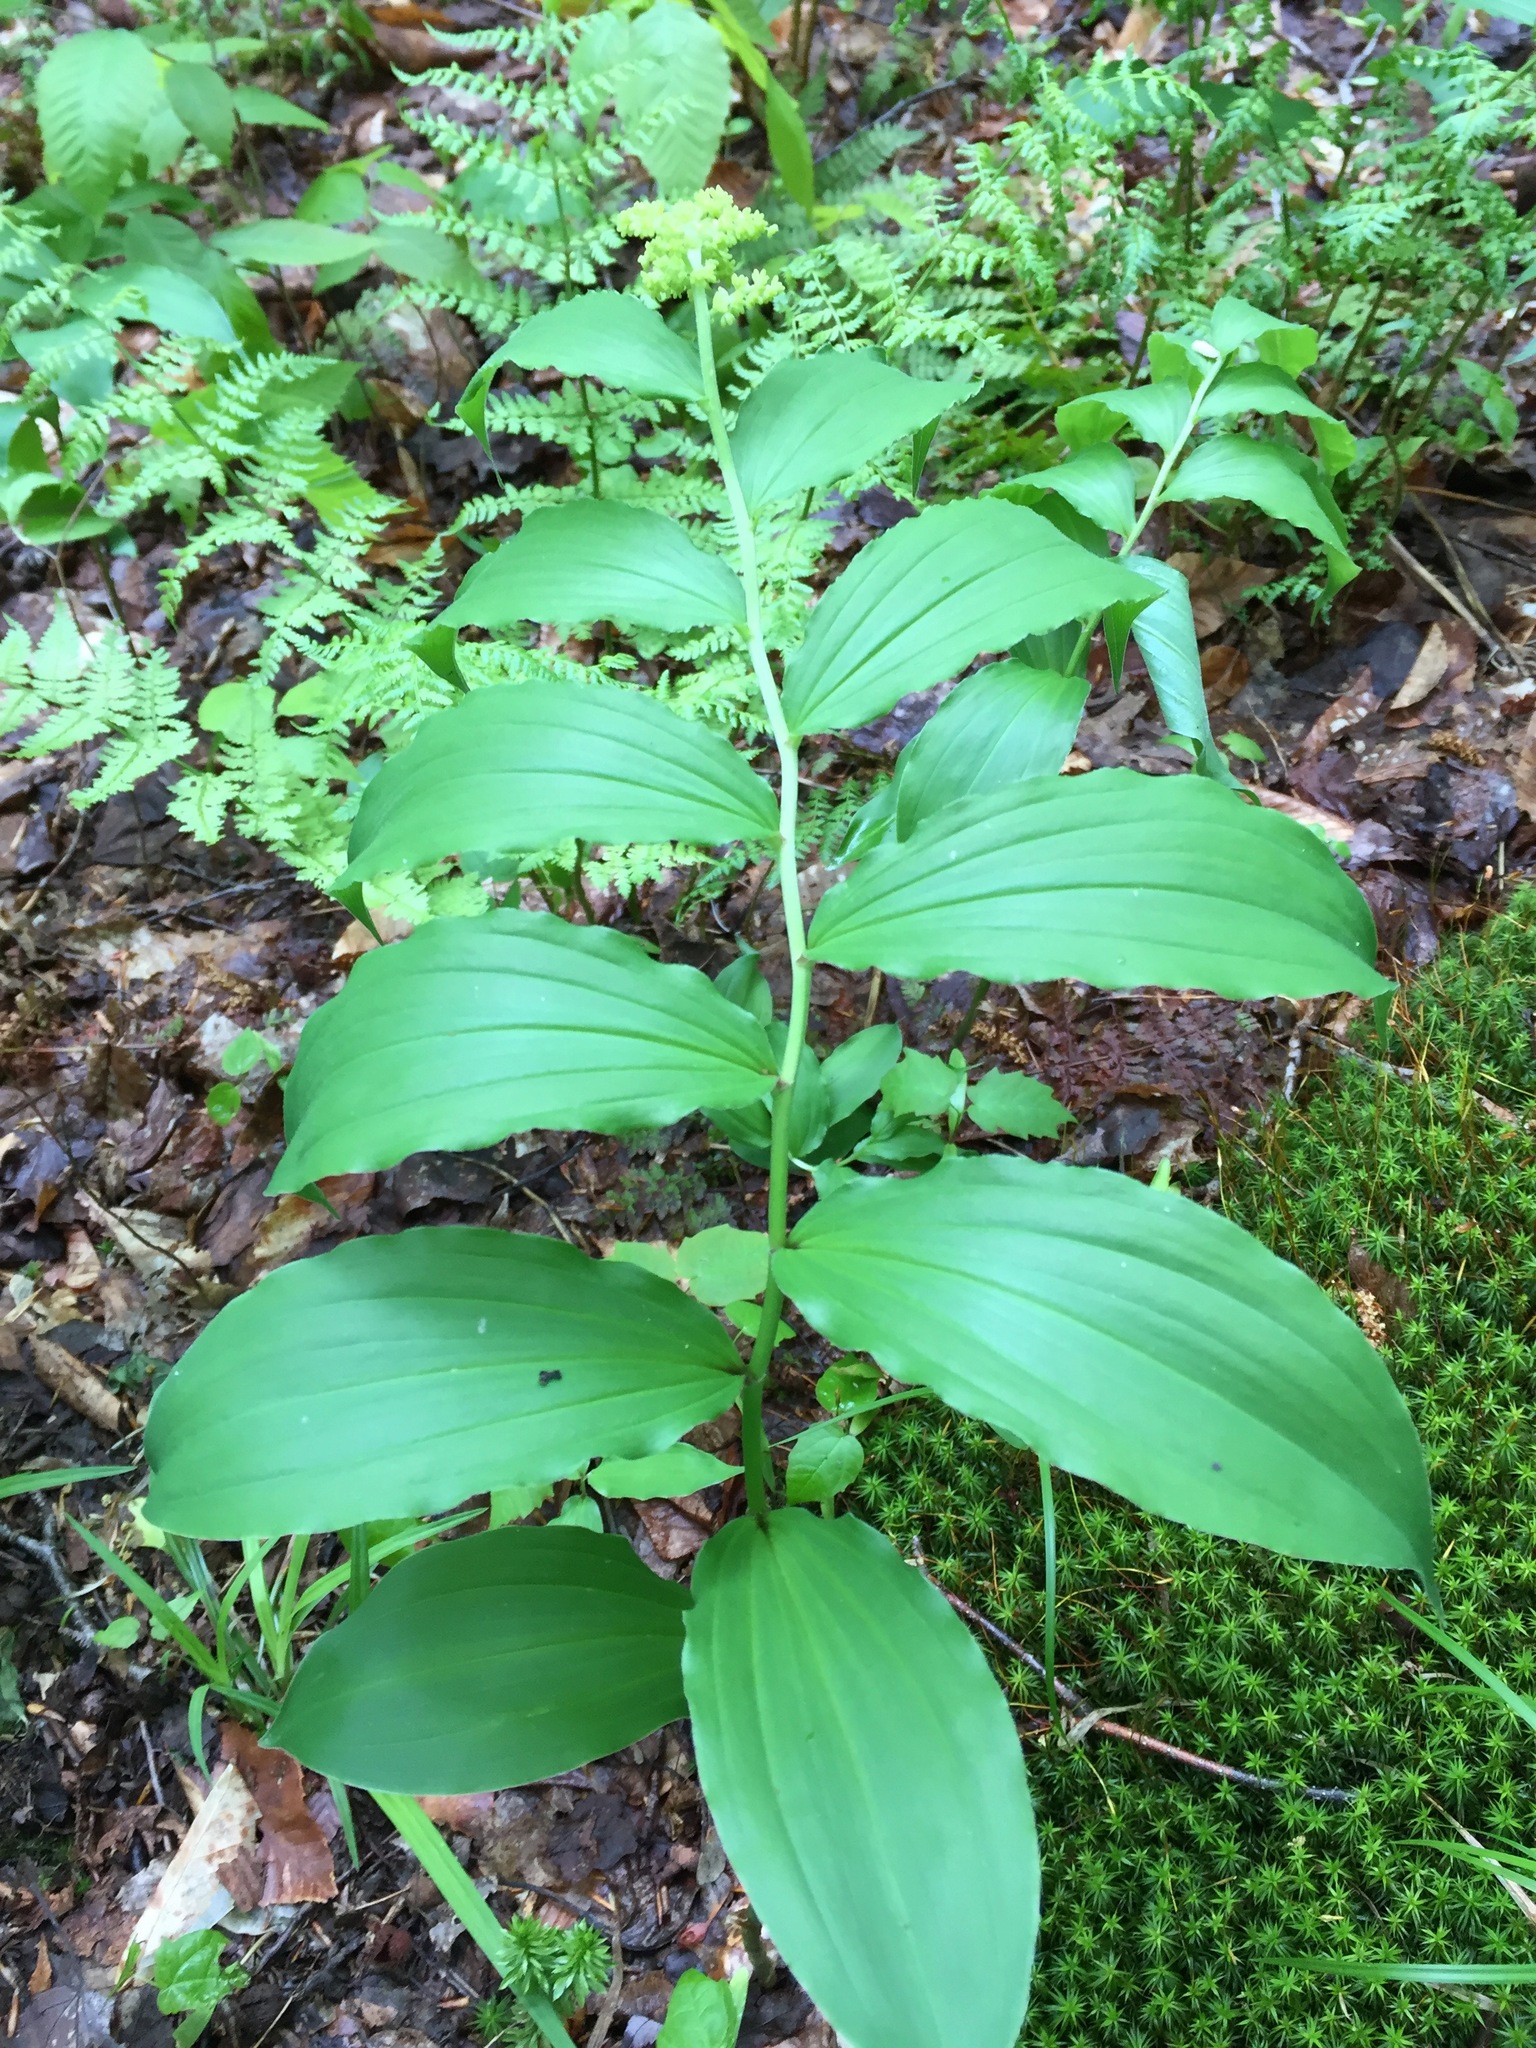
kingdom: Plantae
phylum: Tracheophyta
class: Liliopsida
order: Asparagales
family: Asparagaceae
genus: Maianthemum
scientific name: Maianthemum racemosum
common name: False spikenard
